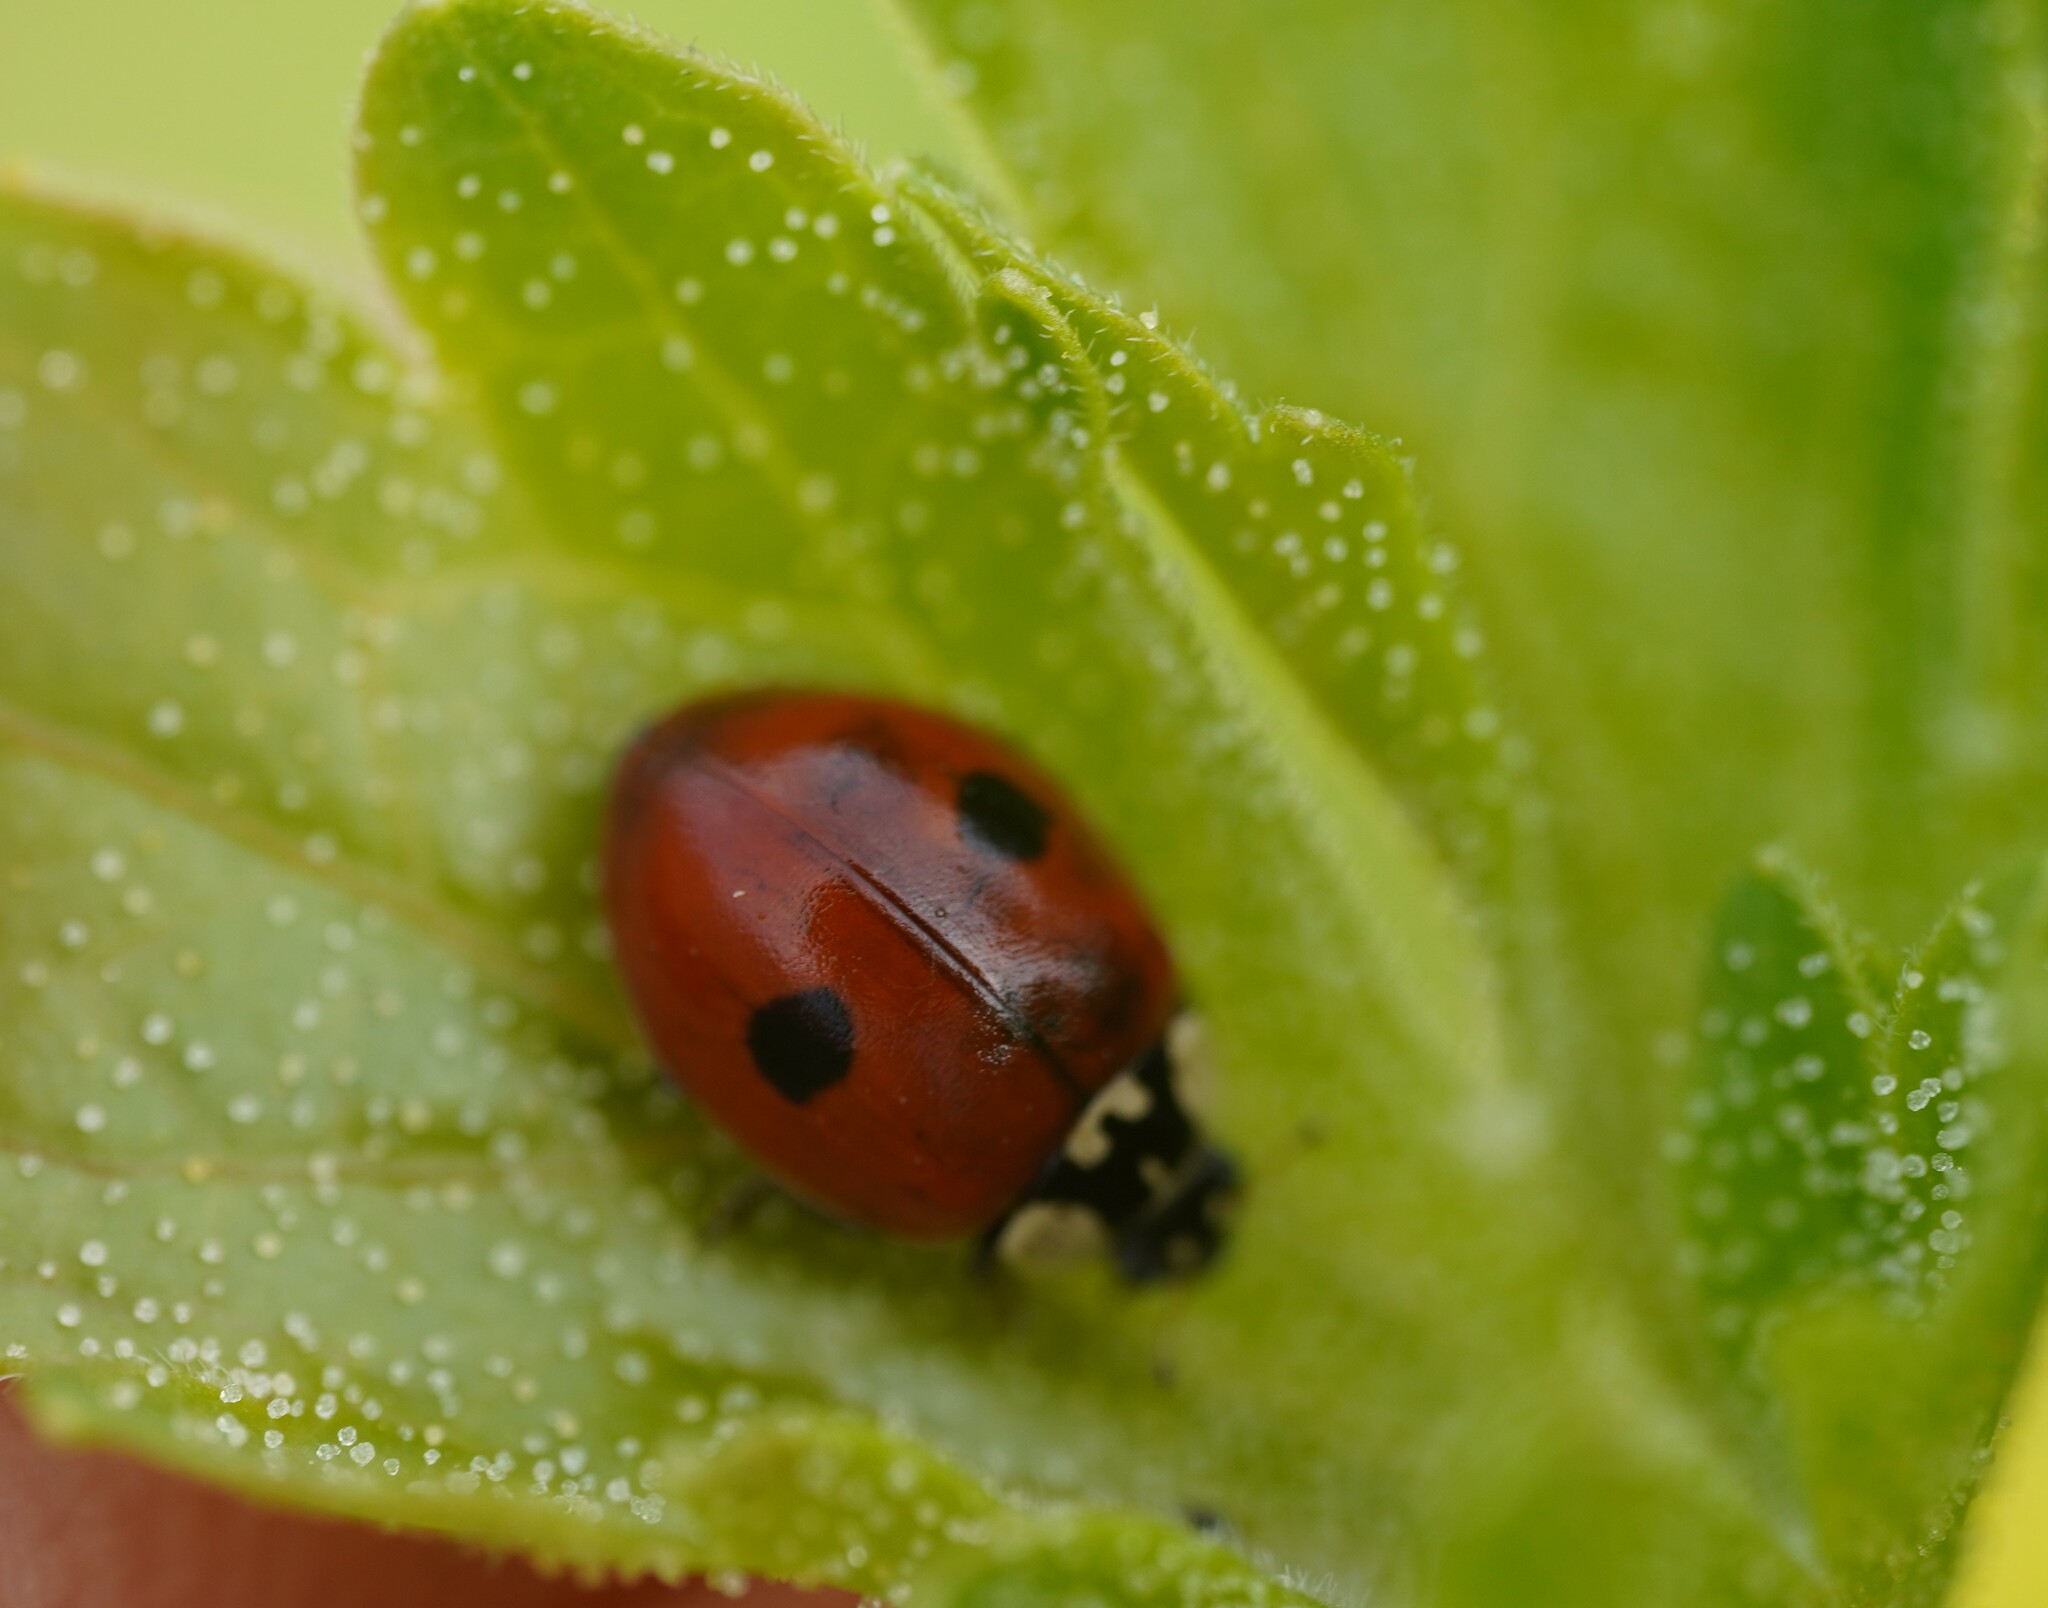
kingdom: Animalia
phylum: Arthropoda
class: Insecta
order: Coleoptera
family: Coccinellidae
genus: Adalia
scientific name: Adalia bipunctata
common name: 2-spot ladybird
